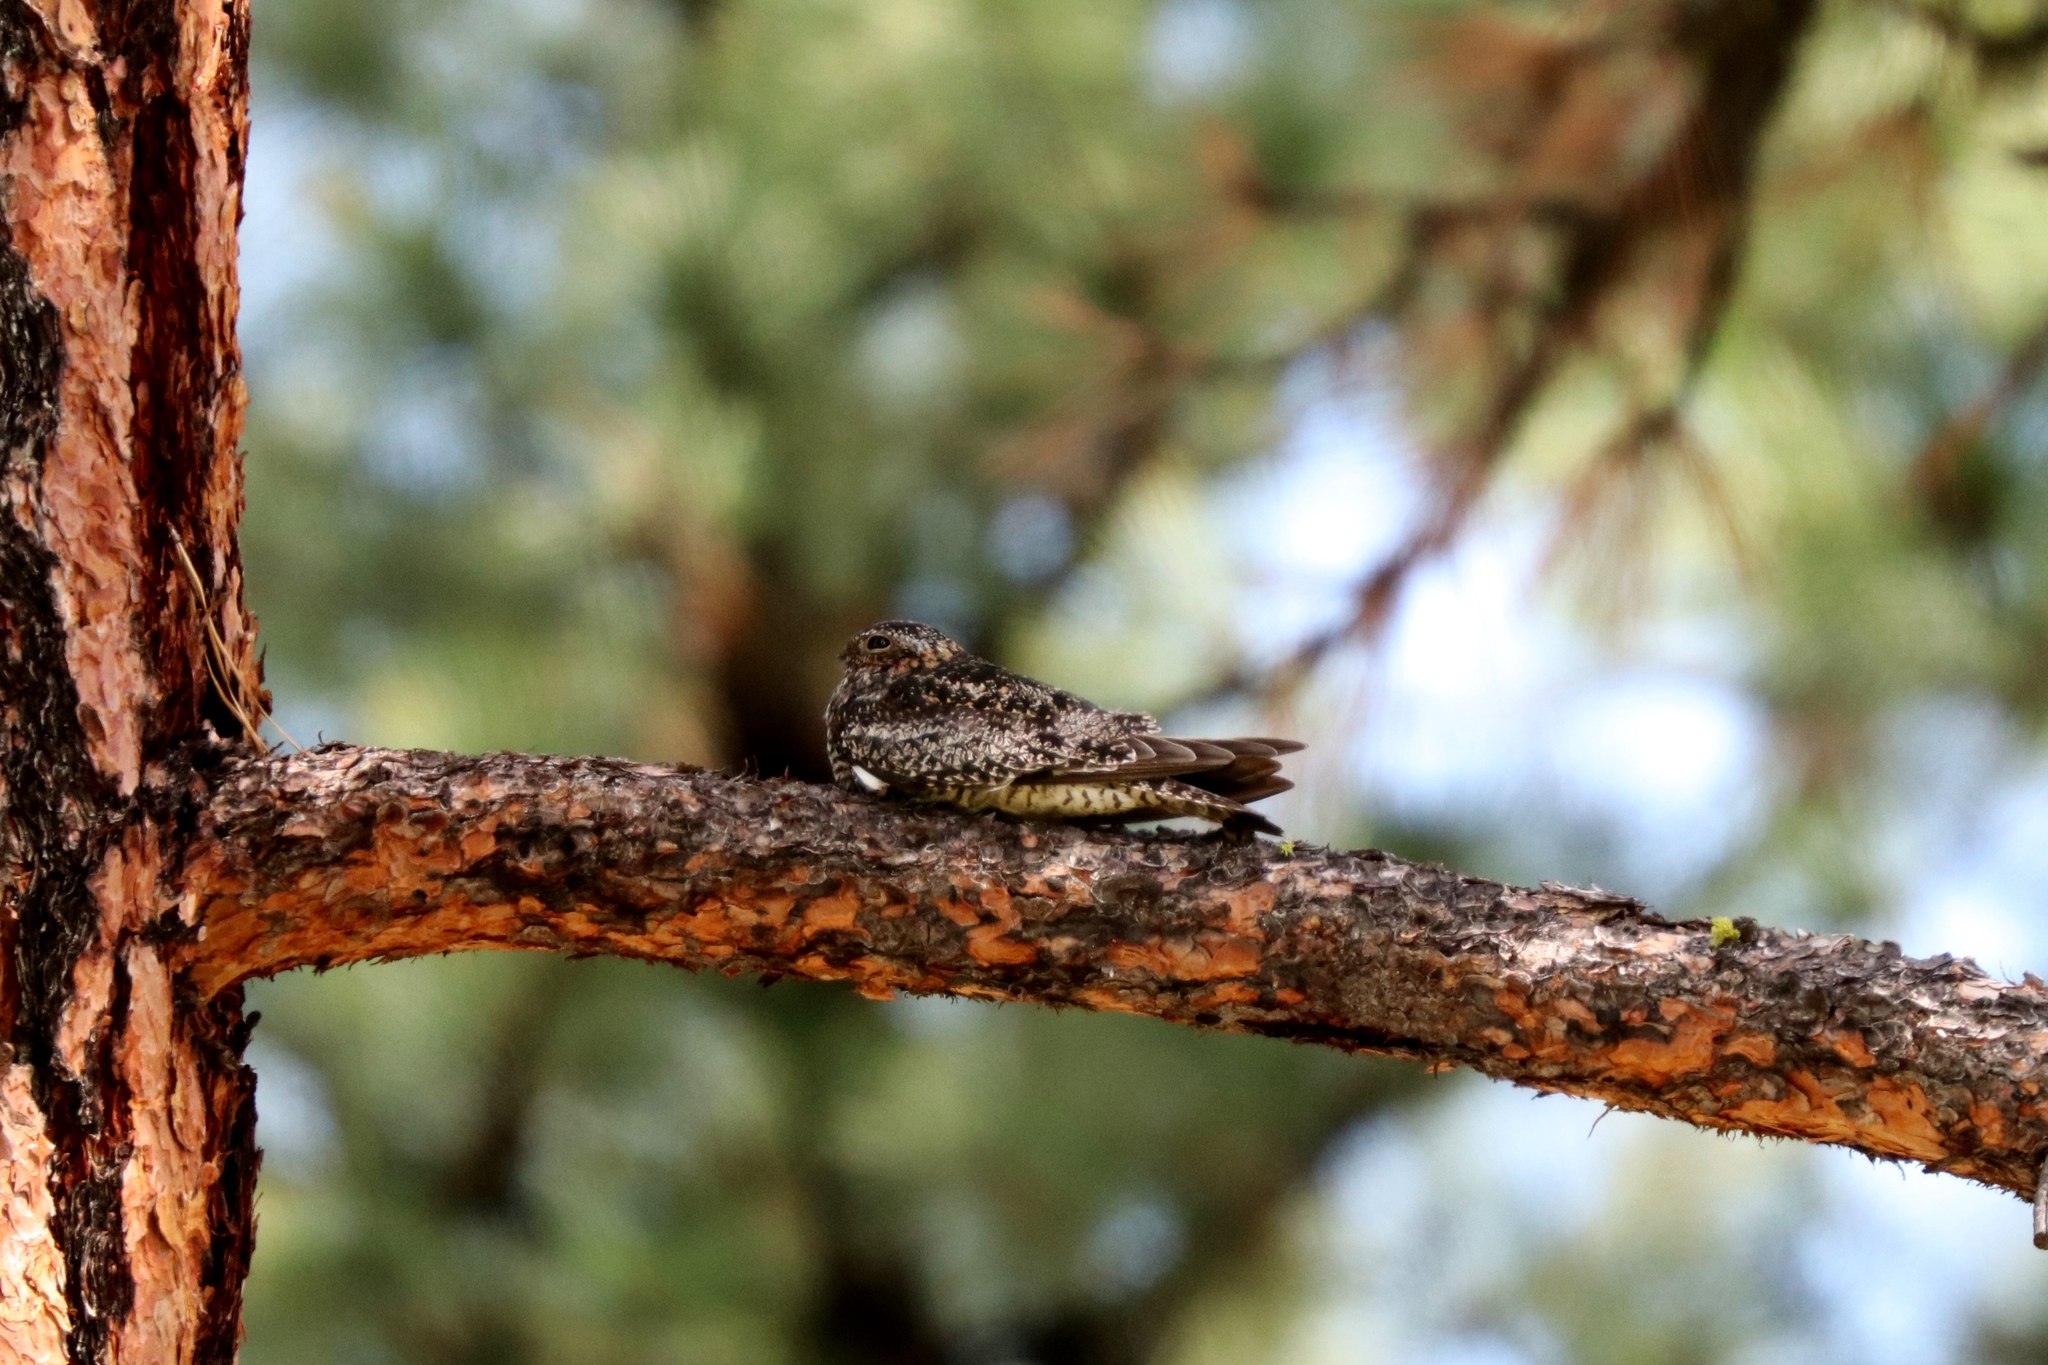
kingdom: Animalia
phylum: Chordata
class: Aves
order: Caprimulgiformes
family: Caprimulgidae
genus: Chordeiles
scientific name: Chordeiles minor
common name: Common nighthawk
